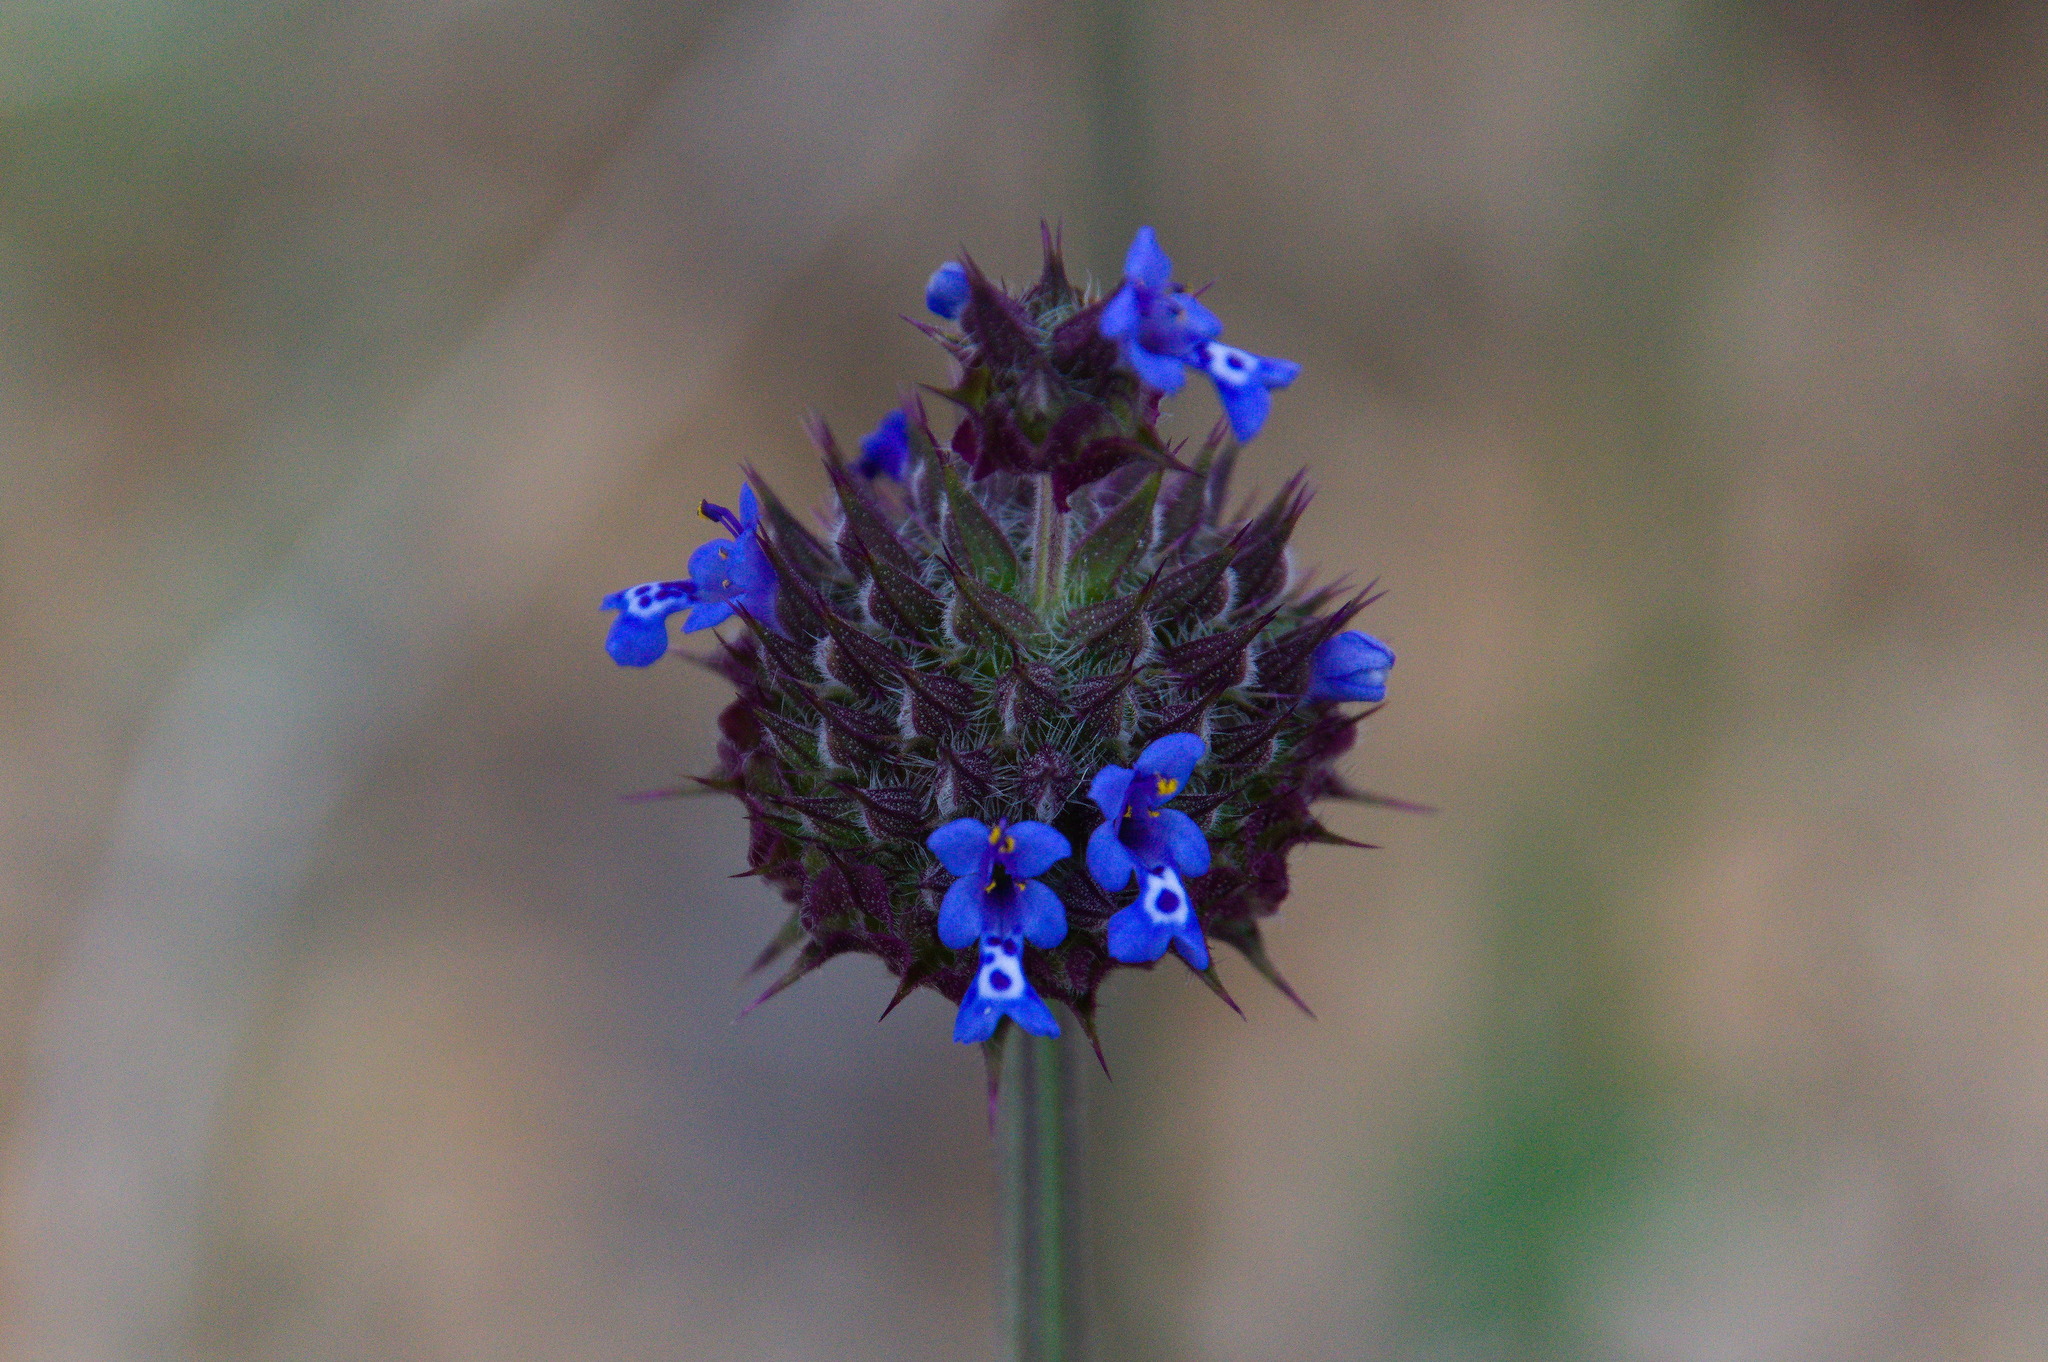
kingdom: Plantae
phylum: Tracheophyta
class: Magnoliopsida
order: Lamiales
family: Lamiaceae
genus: Salvia
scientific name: Salvia columbariae
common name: Chia
